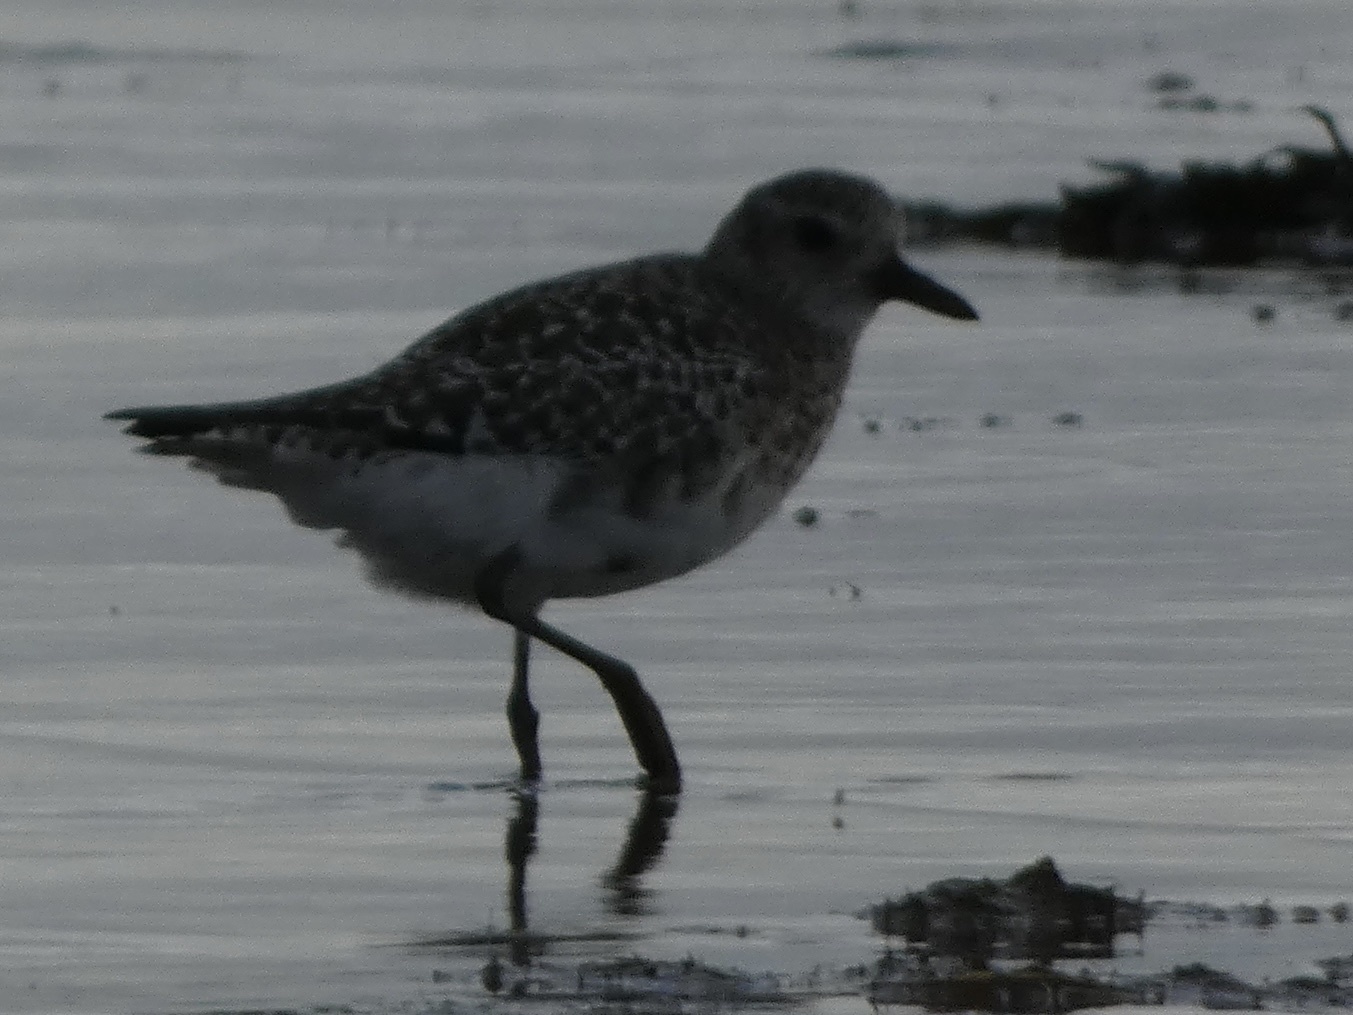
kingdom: Animalia
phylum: Chordata
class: Aves
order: Charadriiformes
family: Charadriidae
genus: Pluvialis
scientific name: Pluvialis squatarola
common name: Grey plover
